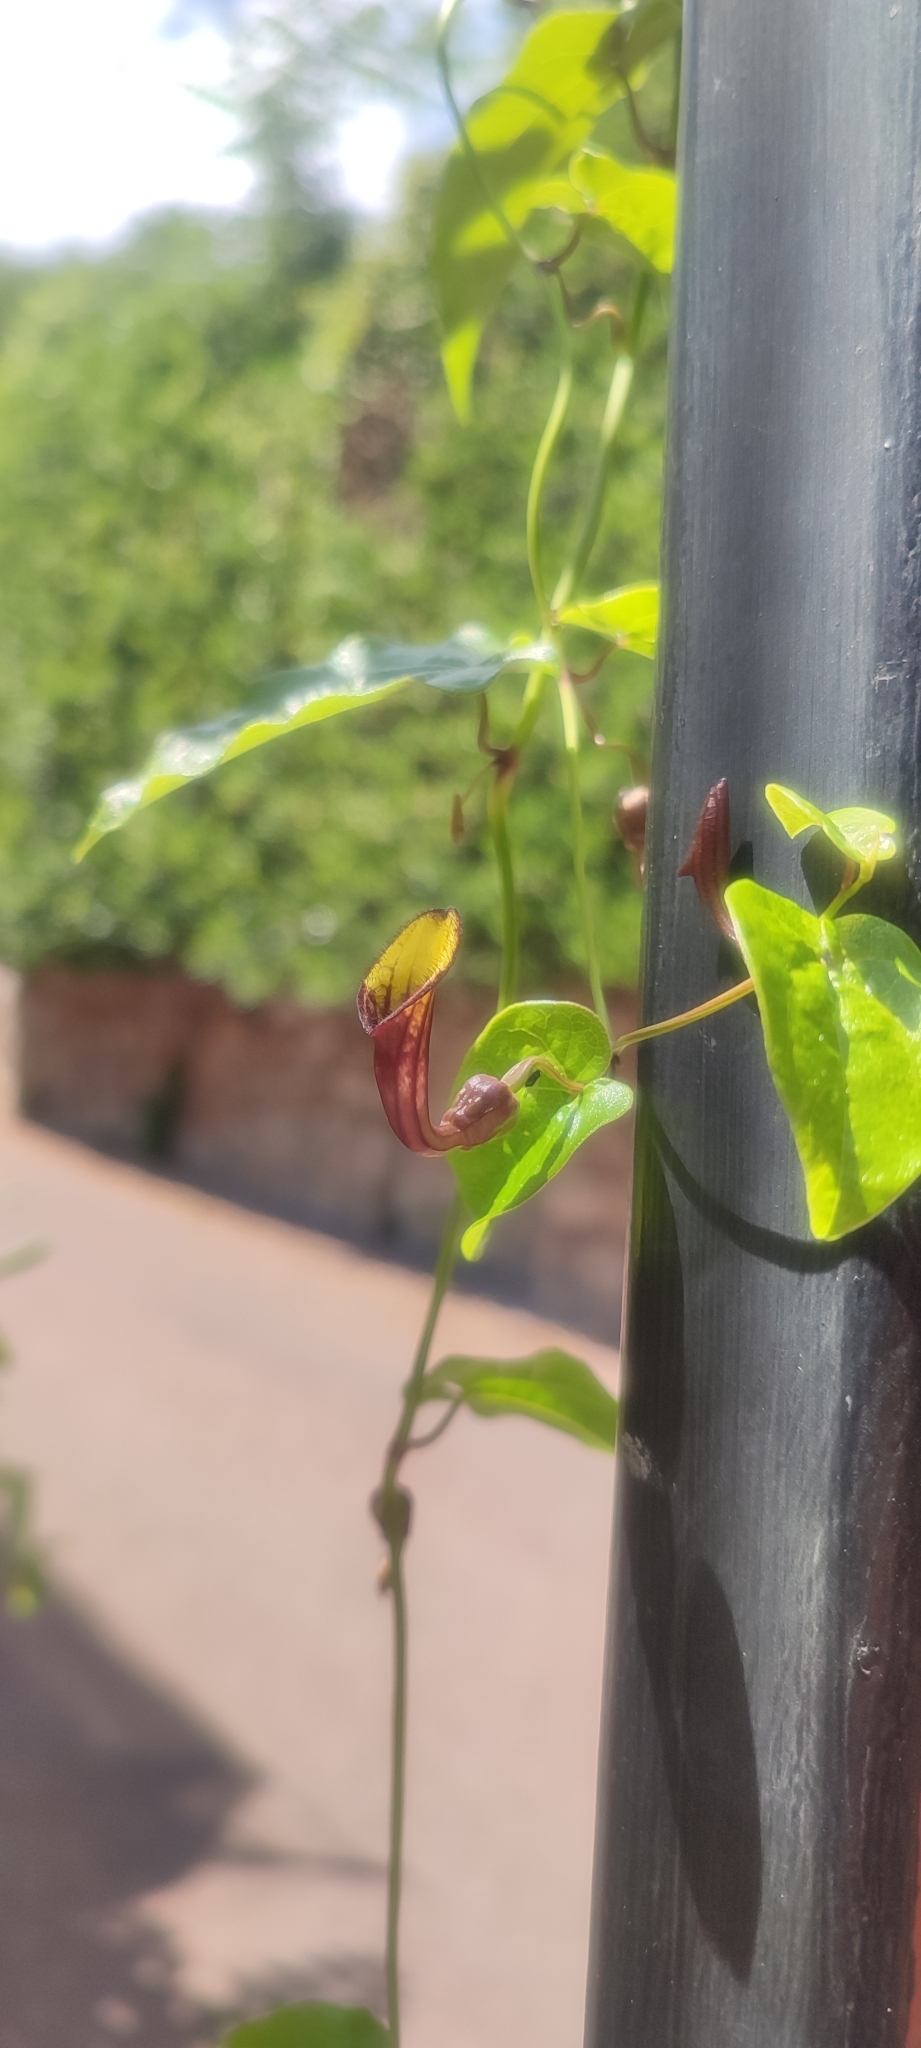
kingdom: Plantae
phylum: Tracheophyta
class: Magnoliopsida
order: Piperales
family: Aristolochiaceae
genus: Aristolochia
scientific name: Aristolochia sempervirens
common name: Long birthwort
